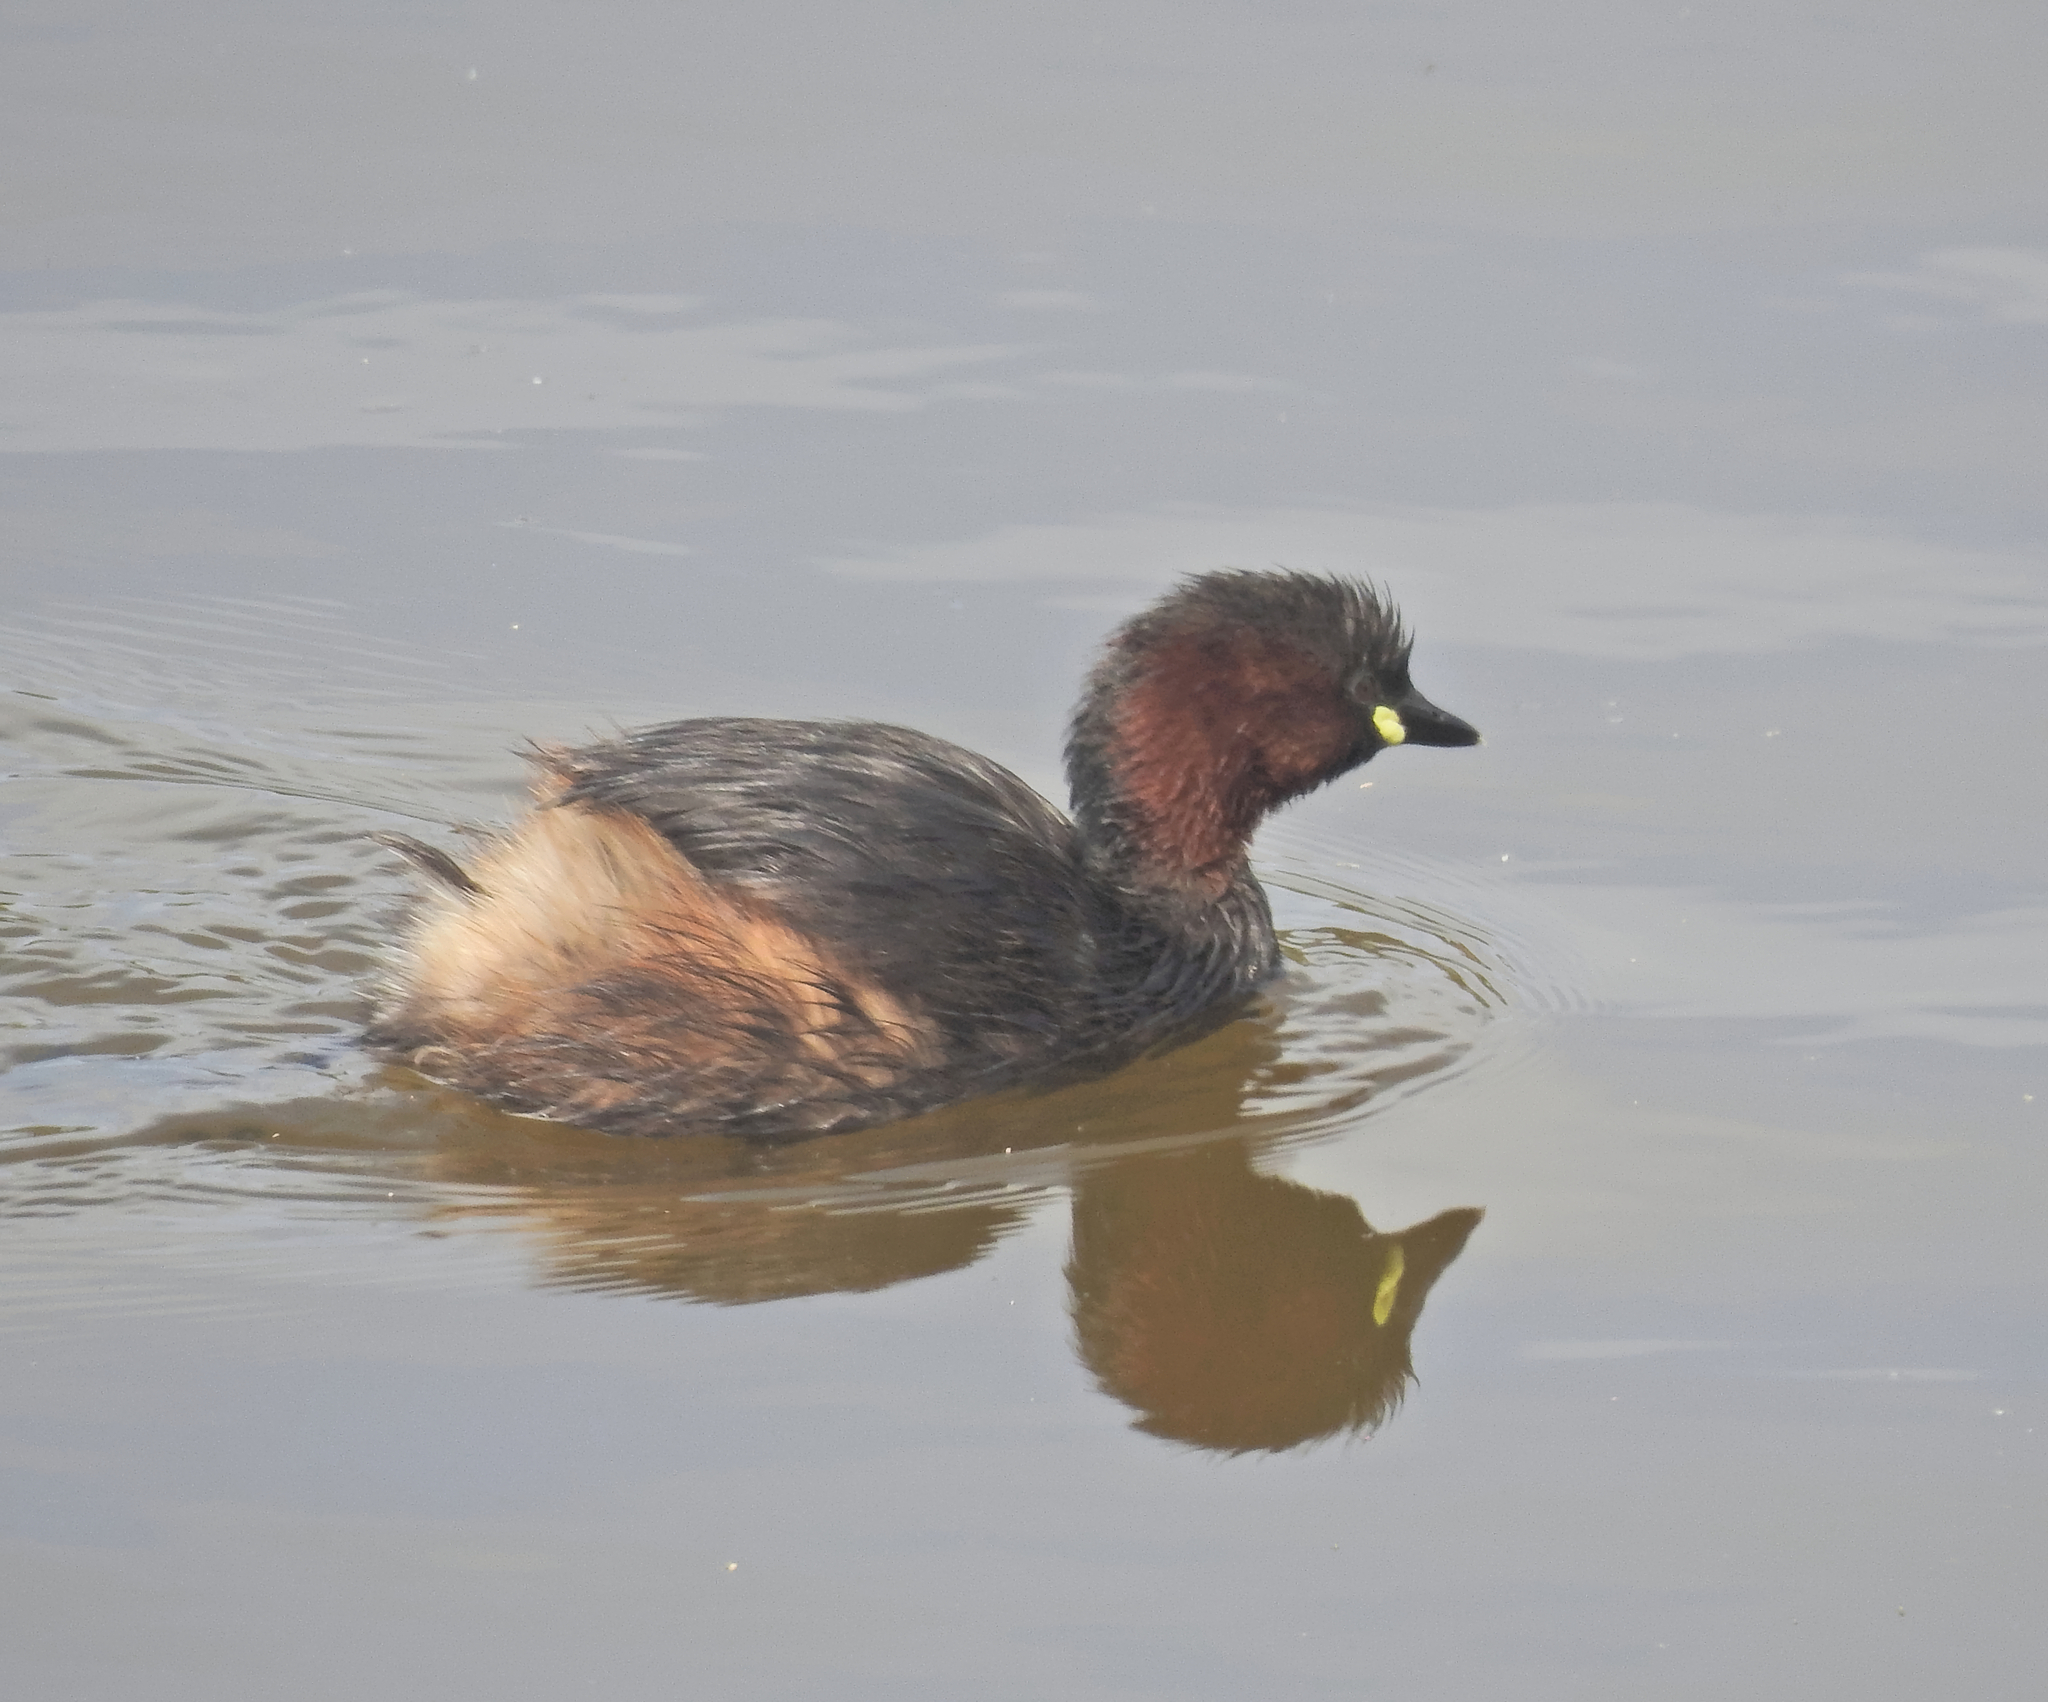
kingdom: Animalia
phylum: Chordata
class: Aves
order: Podicipediformes
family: Podicipedidae
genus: Tachybaptus
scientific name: Tachybaptus ruficollis
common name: Little grebe
